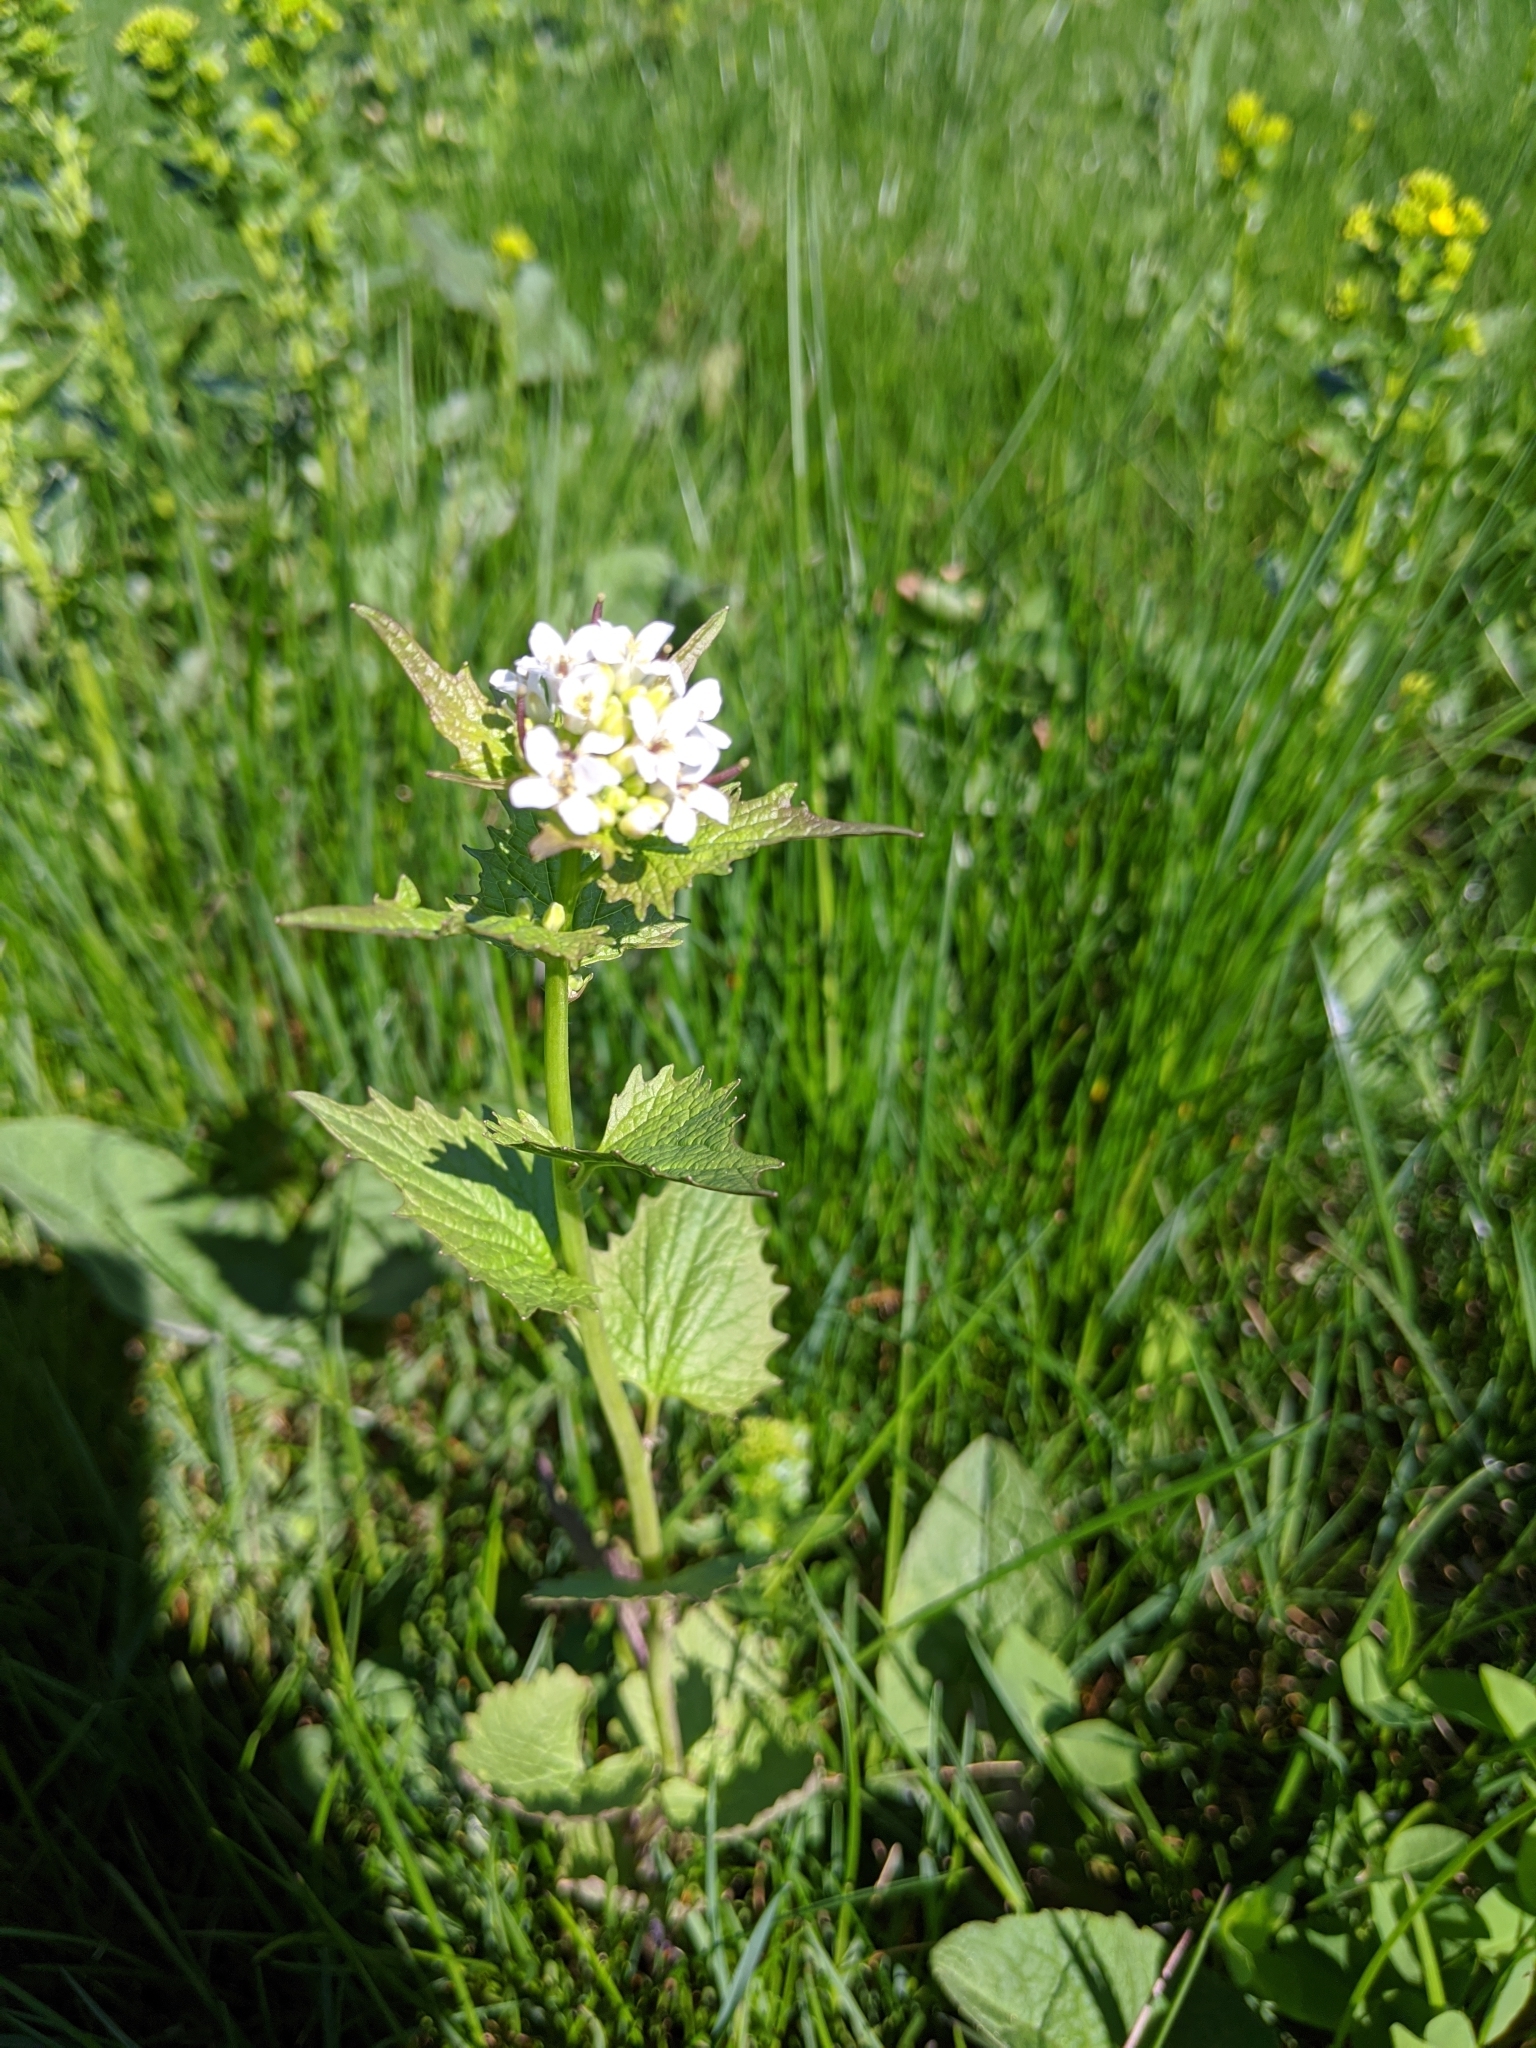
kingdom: Plantae
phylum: Tracheophyta
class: Magnoliopsida
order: Brassicales
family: Brassicaceae
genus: Alliaria
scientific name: Alliaria petiolata
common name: Garlic mustard
